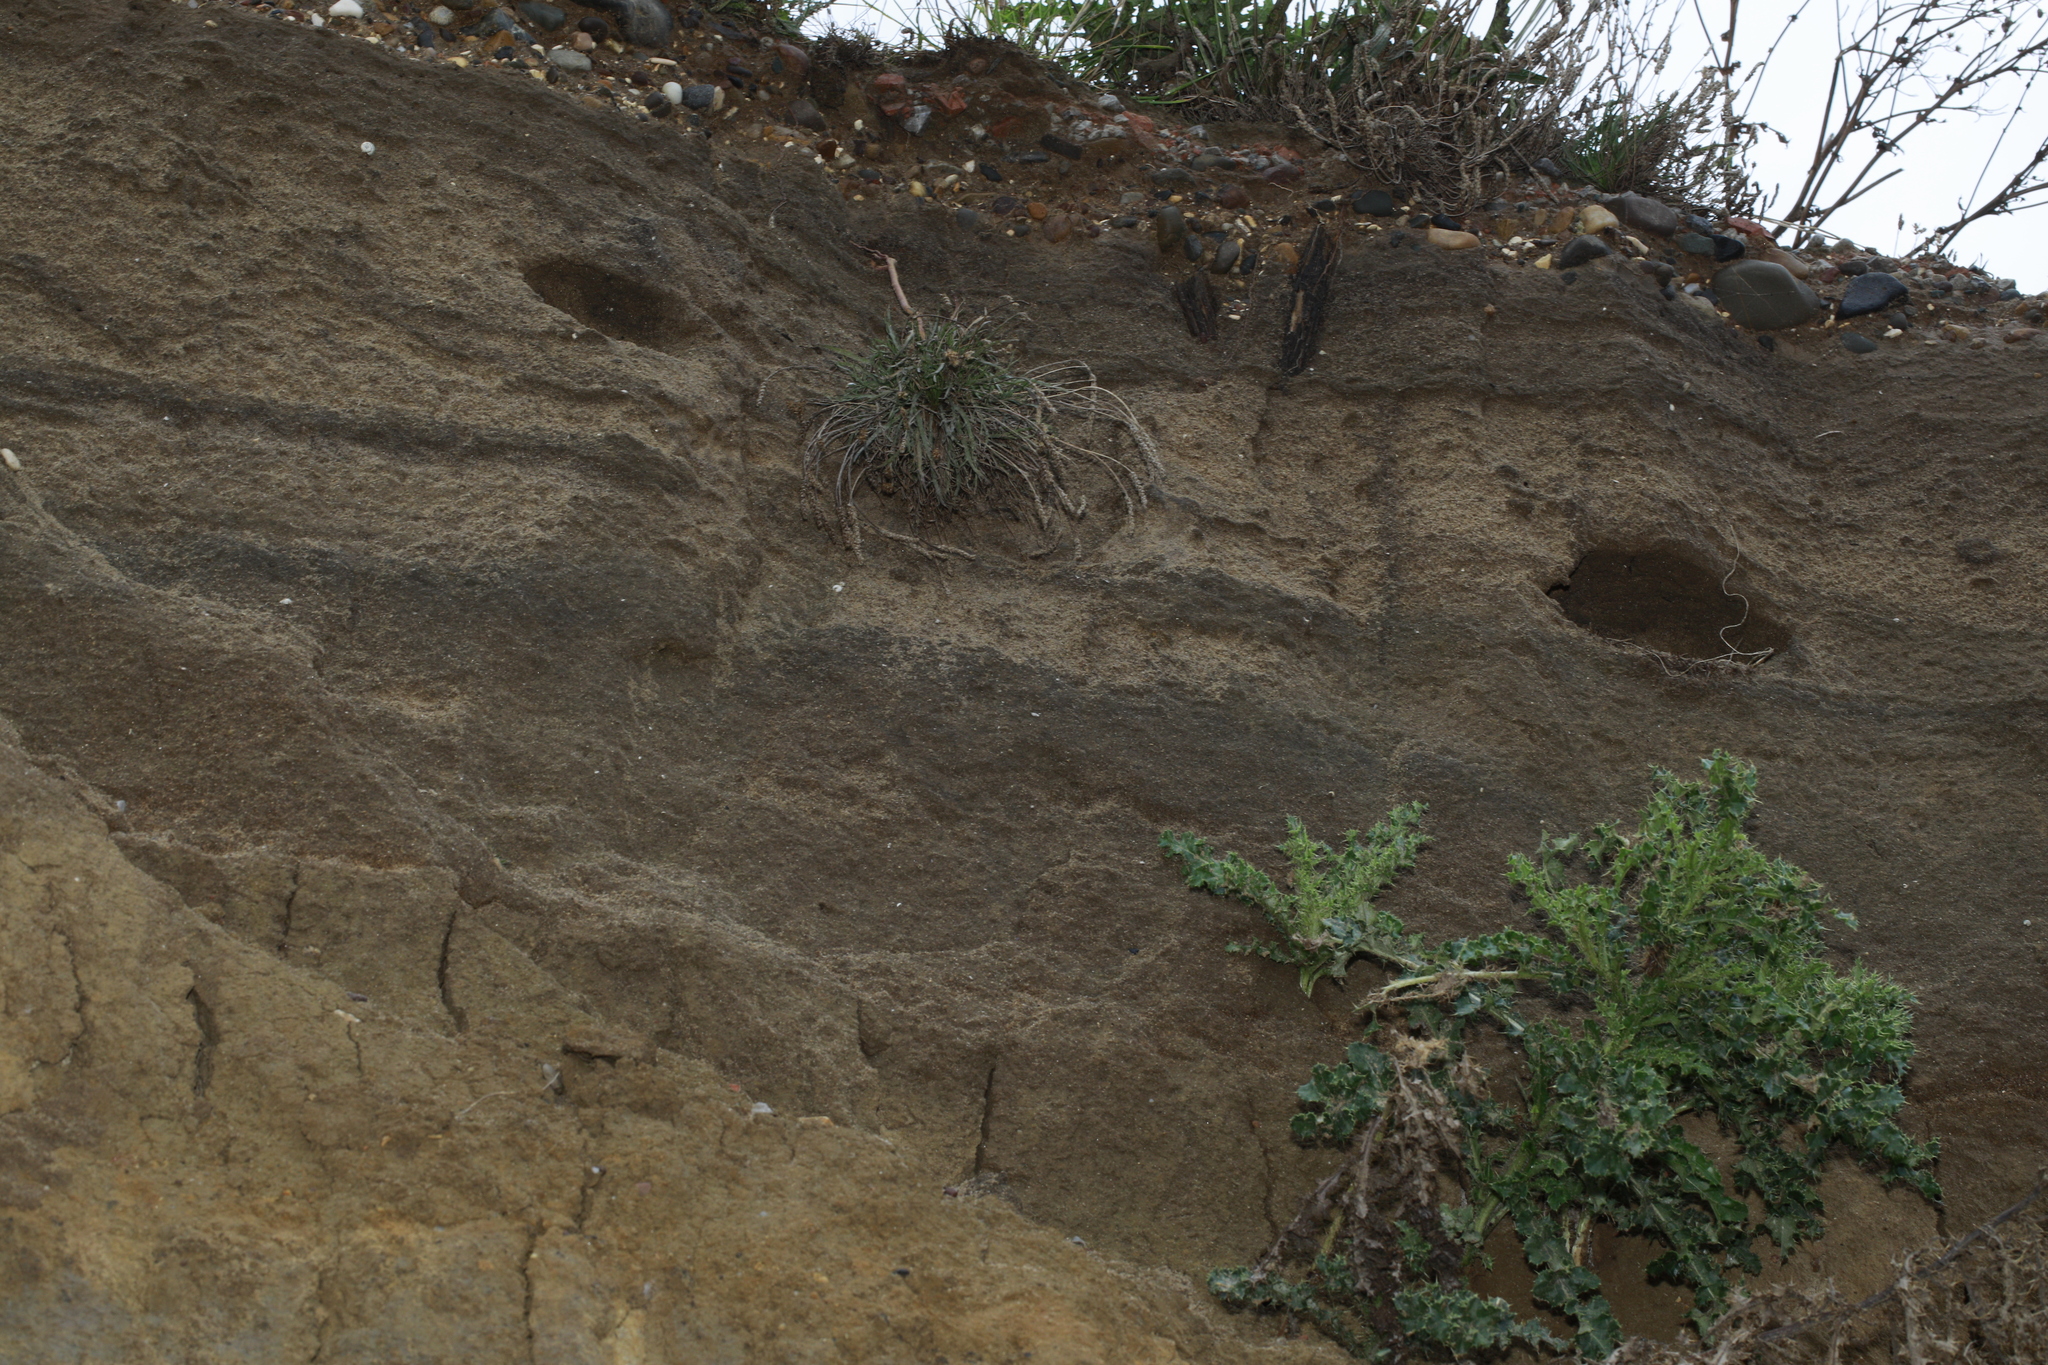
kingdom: Animalia
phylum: Chordata
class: Aves
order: Passeriformes
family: Hirundinidae
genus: Riparia
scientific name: Riparia riparia
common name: Sand martin
